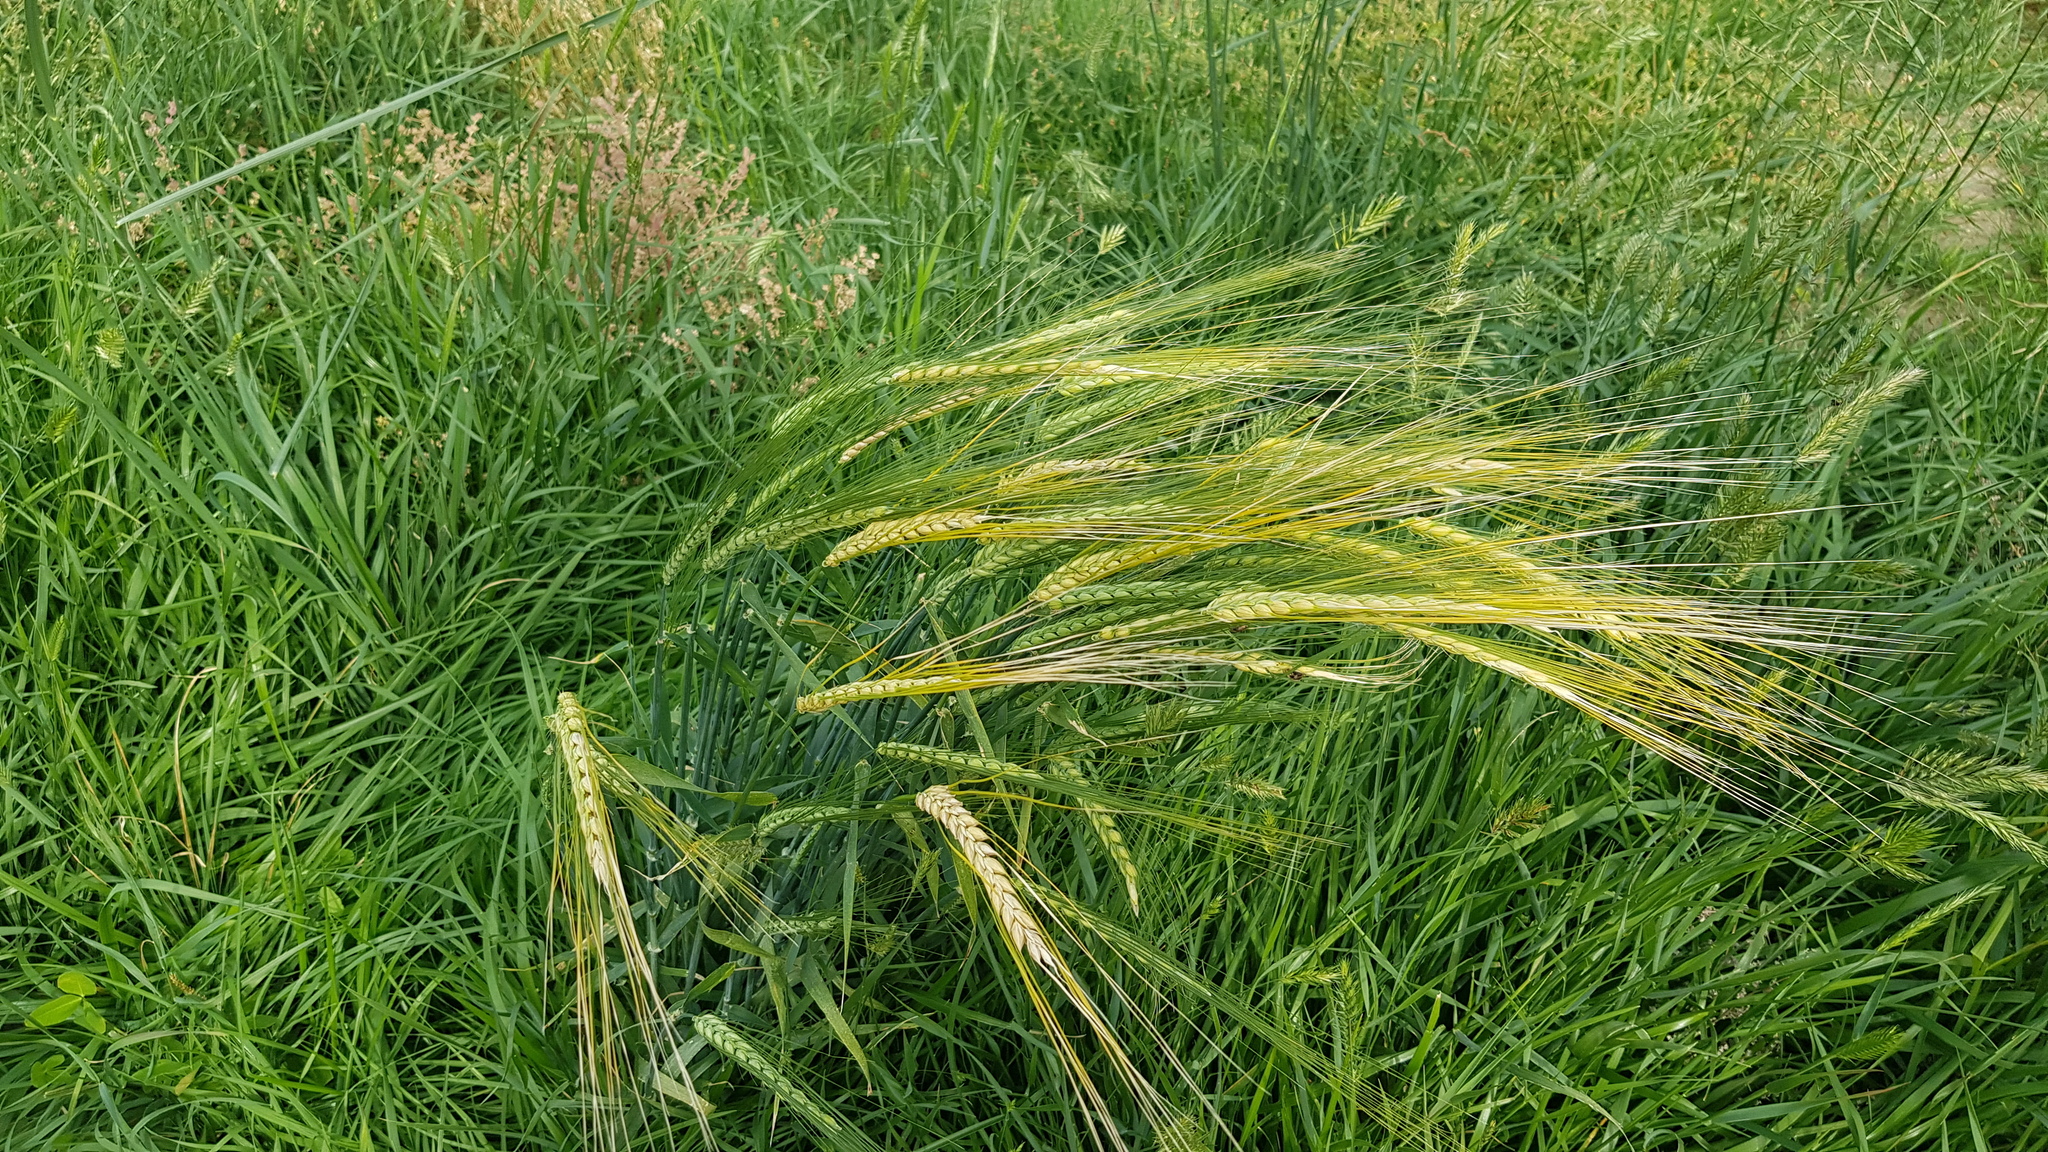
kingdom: Plantae
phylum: Tracheophyta
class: Liliopsida
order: Poales
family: Poaceae
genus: Triticum
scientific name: Triticum aestivum
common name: Common wheat
